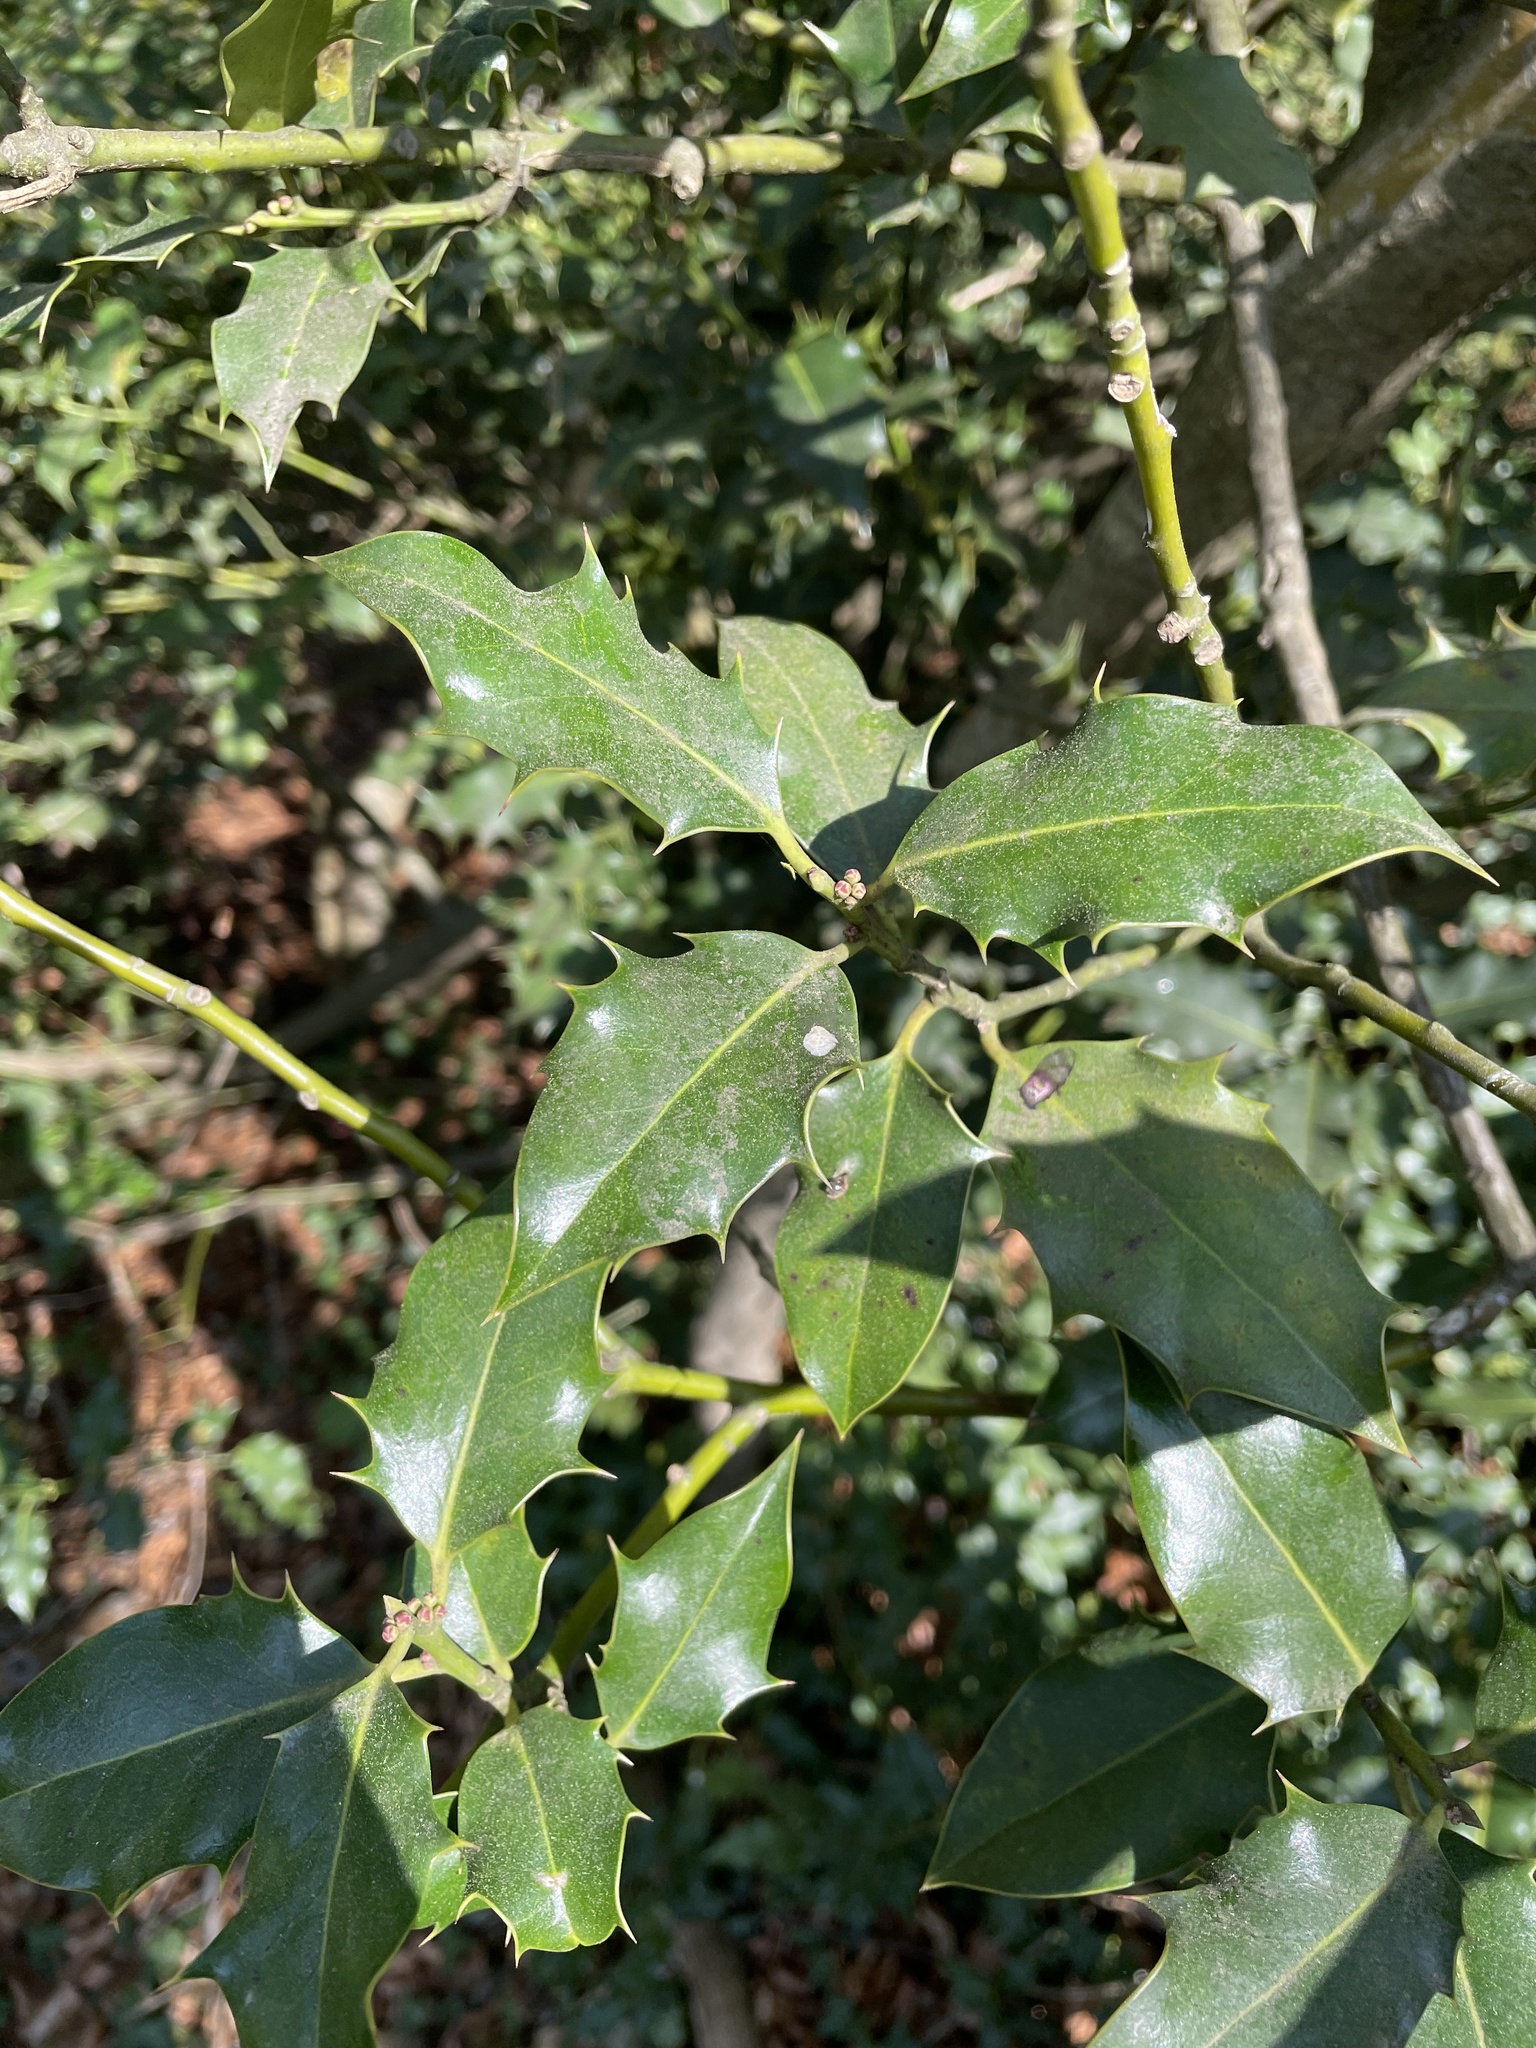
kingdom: Plantae
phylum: Tracheophyta
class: Magnoliopsida
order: Aquifoliales
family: Aquifoliaceae
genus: Ilex
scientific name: Ilex aquifolium
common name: English holly
